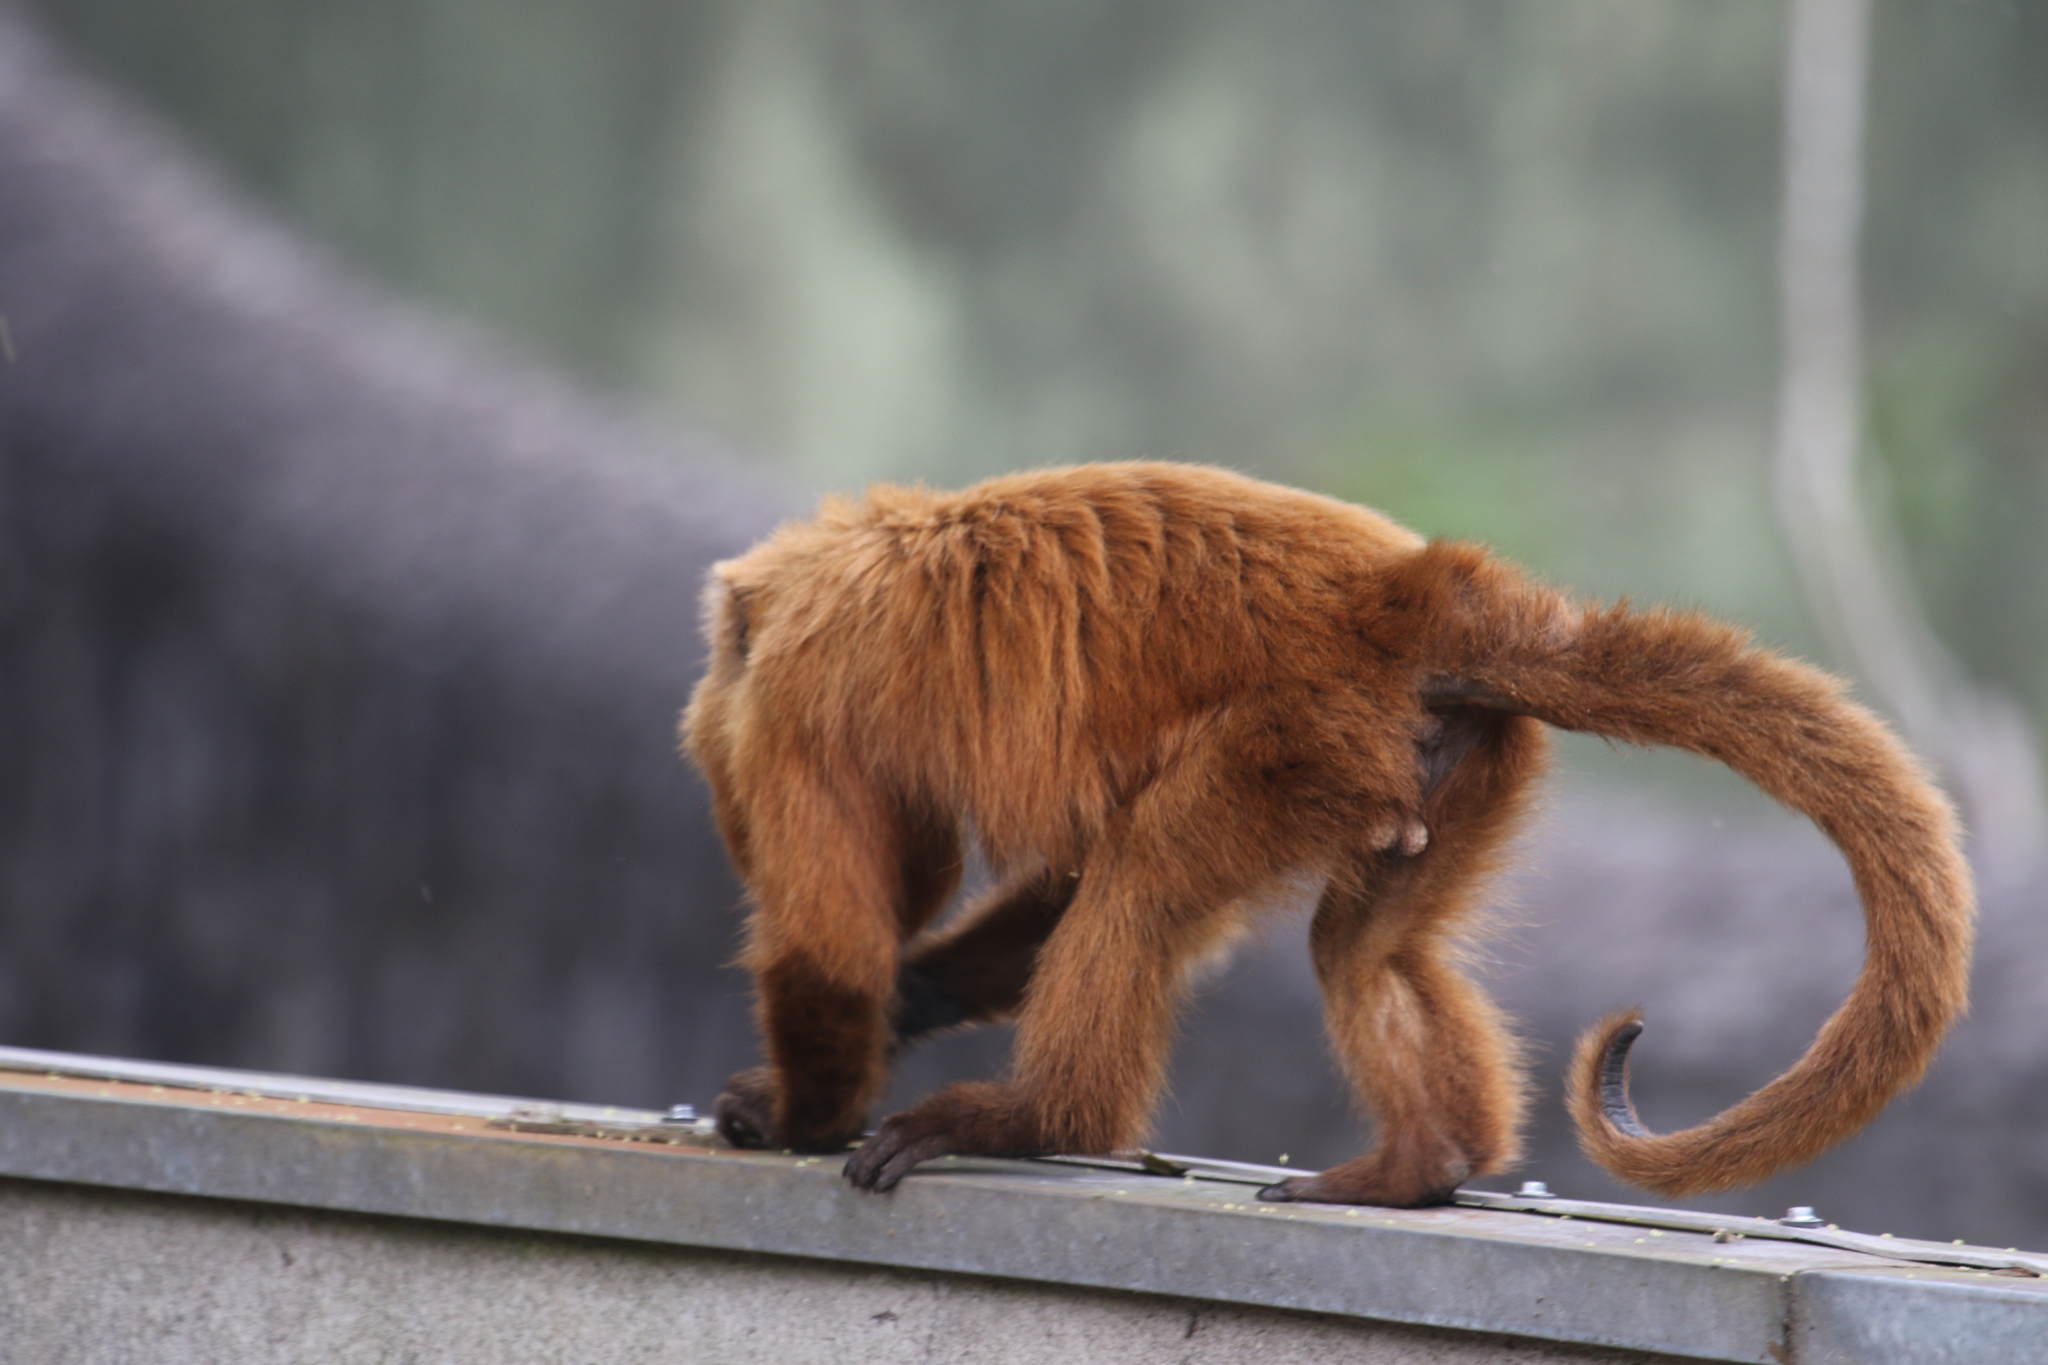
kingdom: Animalia
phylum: Chordata
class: Mammalia
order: Primates
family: Atelidae
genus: Alouatta
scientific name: Alouatta guariba
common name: Brown howler monkey
